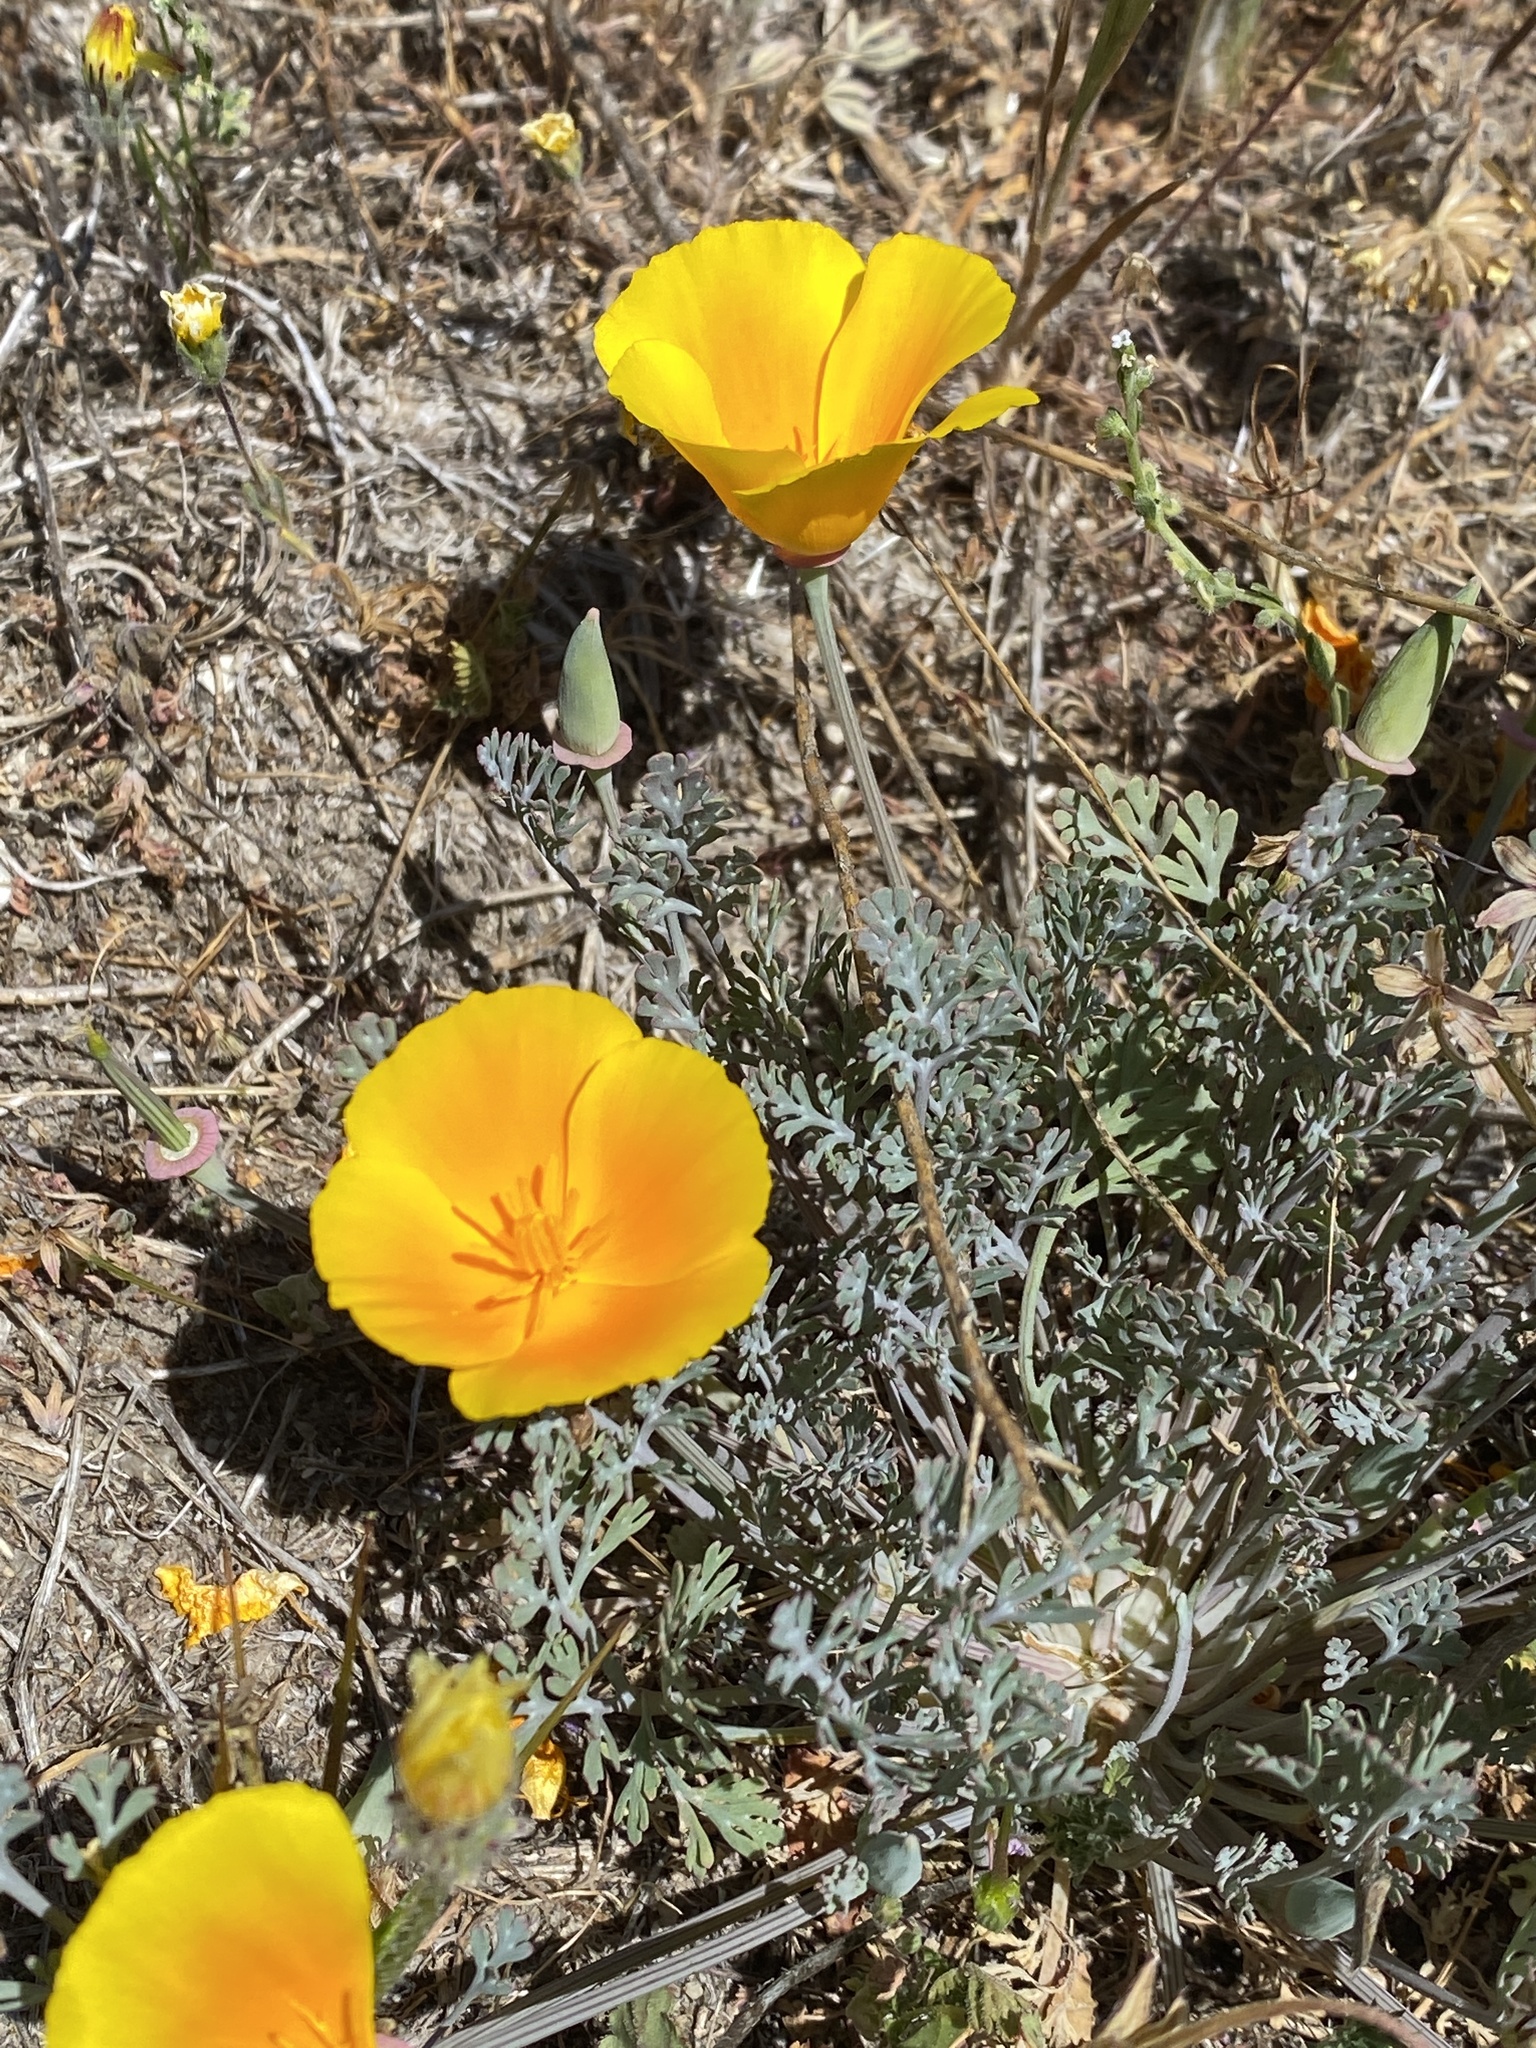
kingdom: Plantae
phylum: Tracheophyta
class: Magnoliopsida
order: Ranunculales
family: Papaveraceae
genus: Eschscholzia
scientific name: Eschscholzia californica
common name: California poppy
